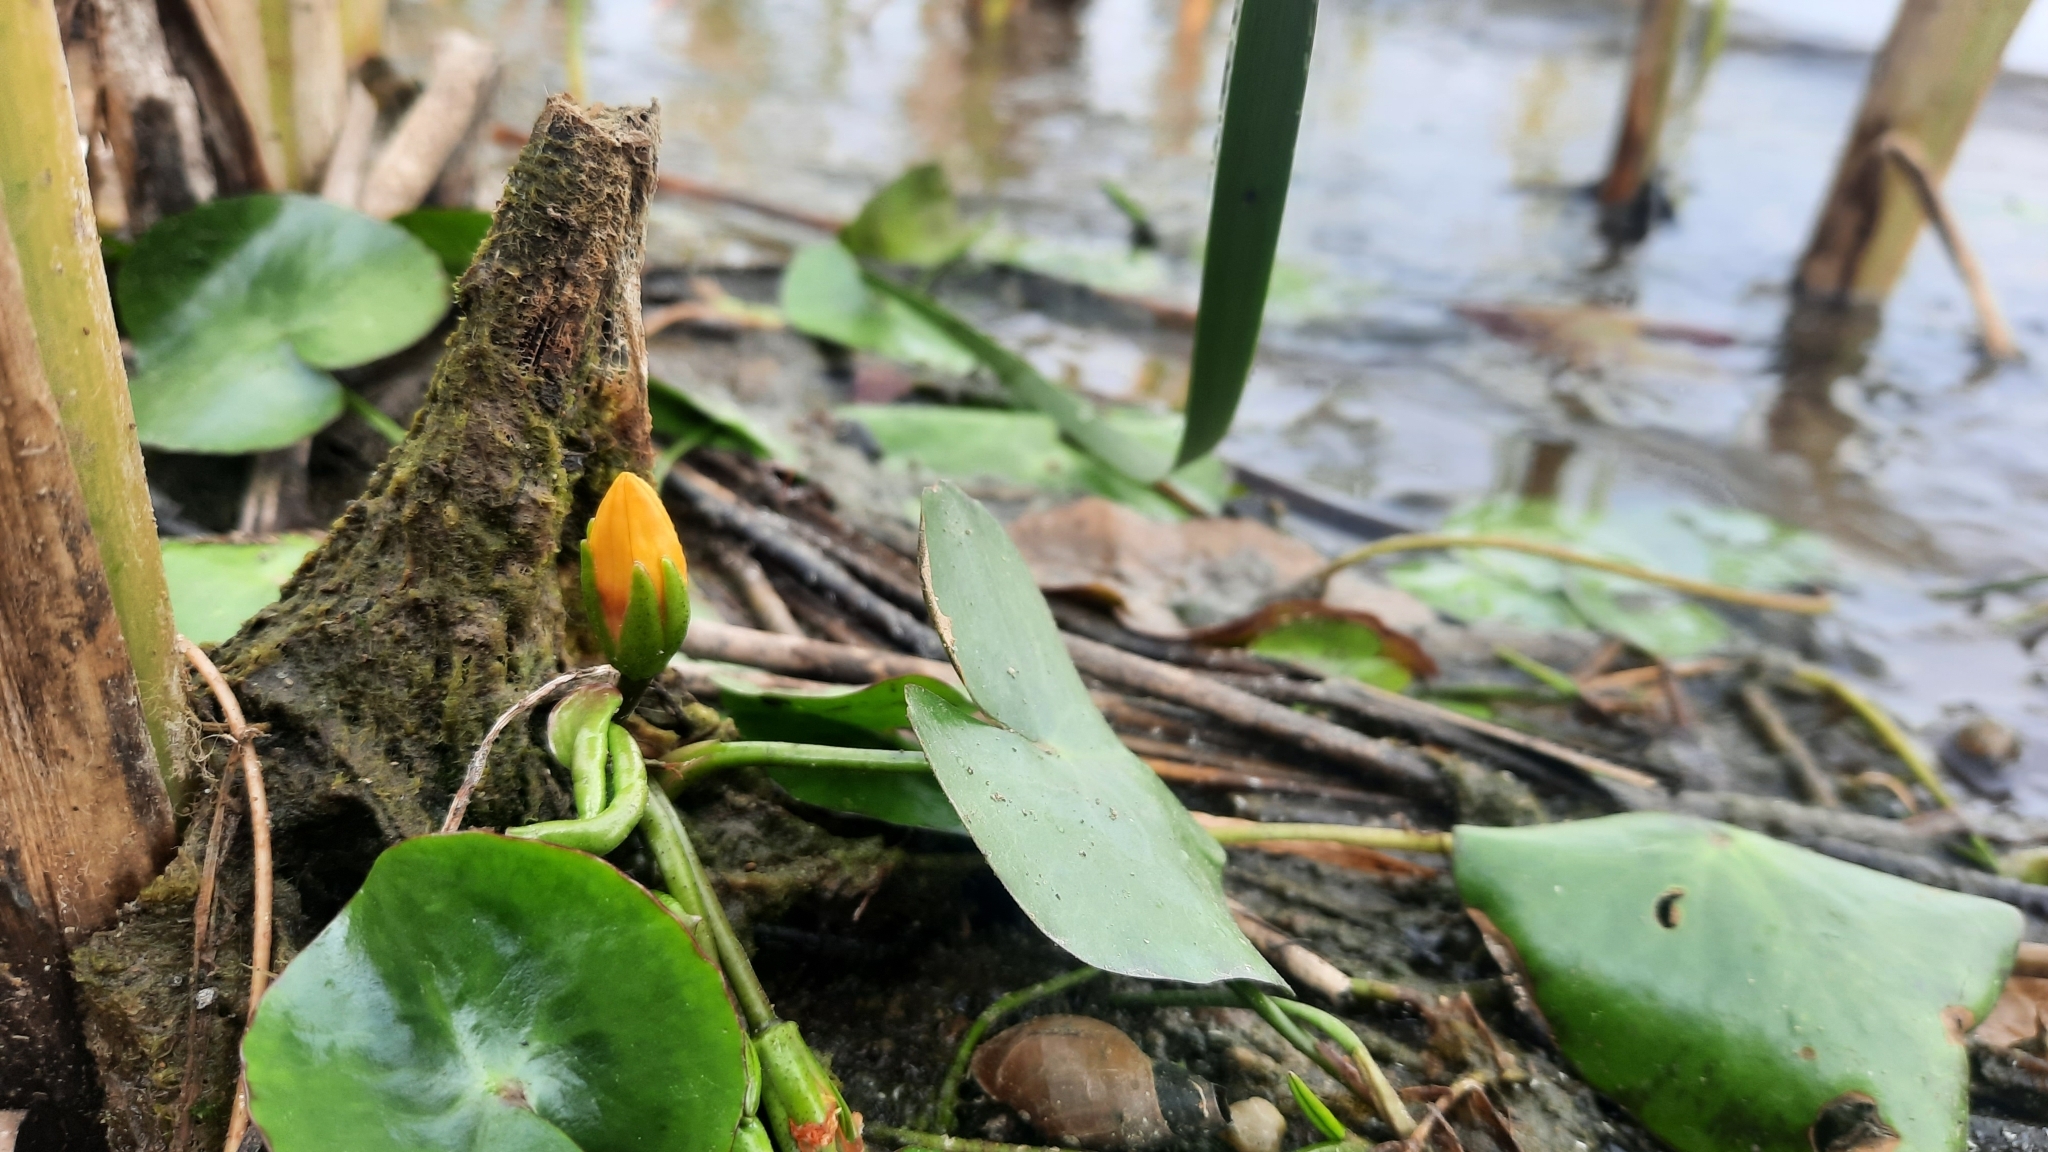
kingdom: Plantae
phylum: Tracheophyta
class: Magnoliopsida
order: Asterales
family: Menyanthaceae
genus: Nymphoides
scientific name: Nymphoides peltata
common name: Fringed water-lily
